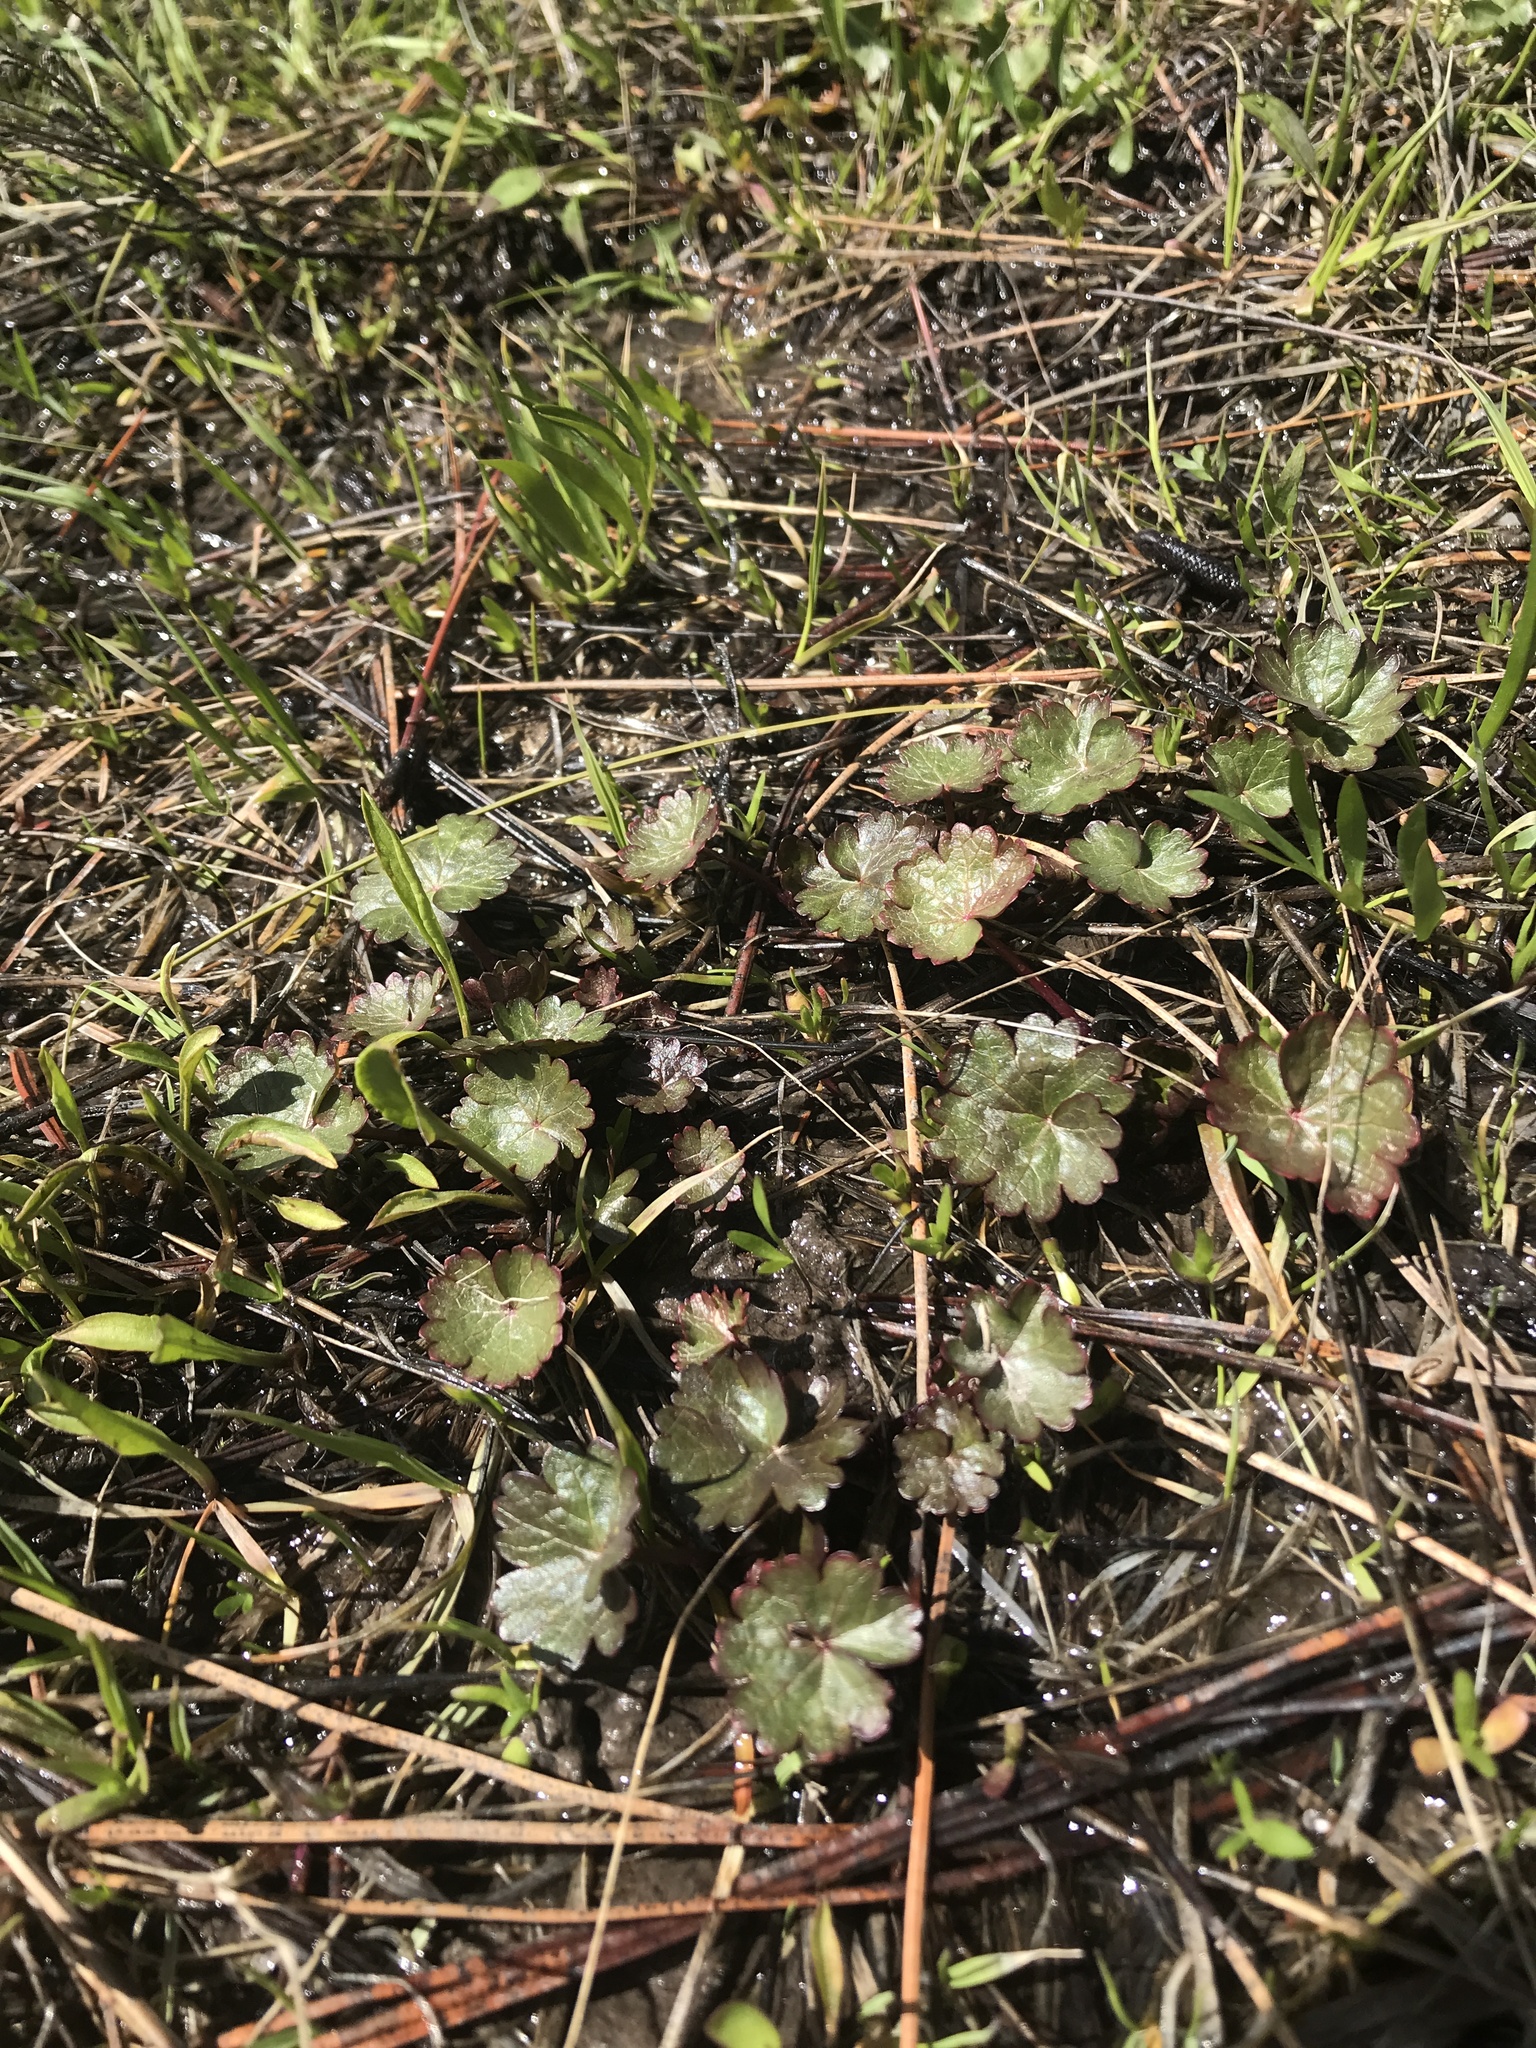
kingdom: Plantae
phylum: Tracheophyta
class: Magnoliopsida
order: Malvales
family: Malvaceae
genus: Sidalcea
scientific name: Sidalcea oregana
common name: Oregon checker-mallow
